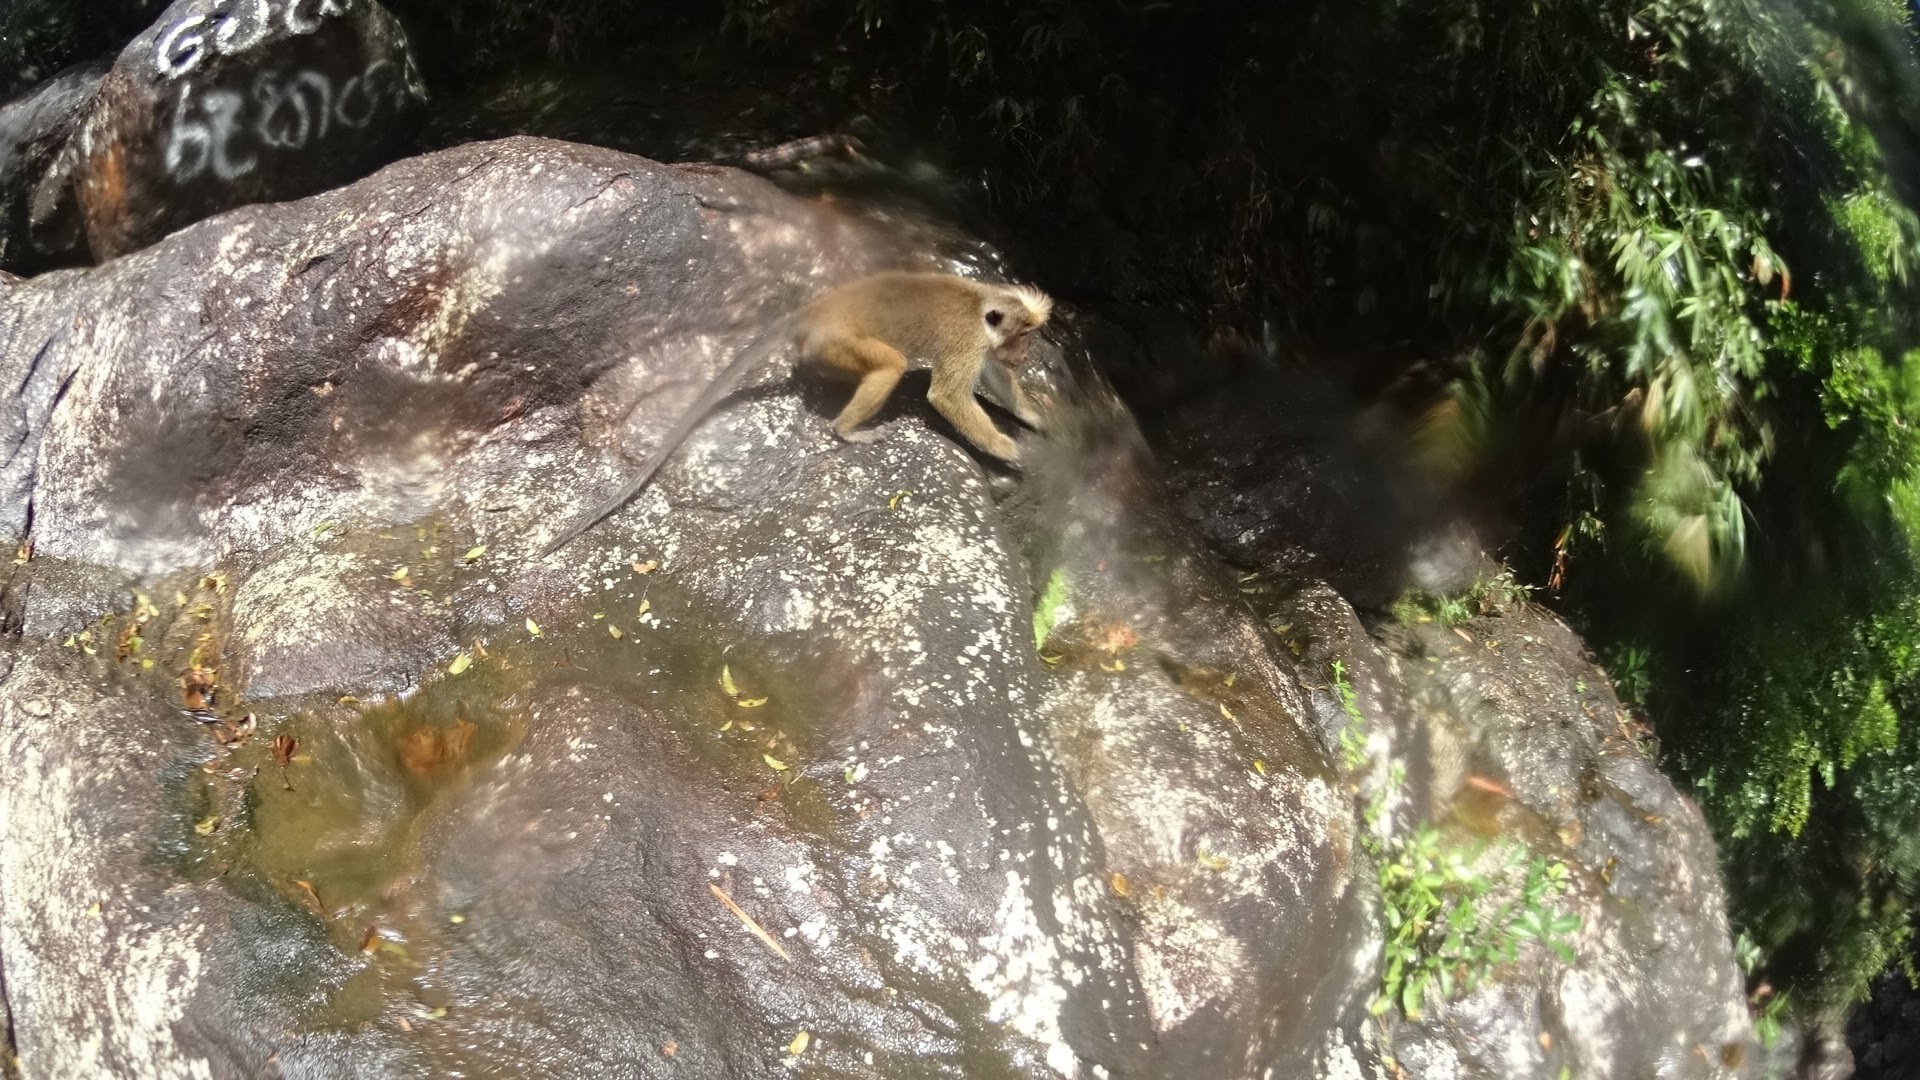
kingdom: Animalia
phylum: Chordata
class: Mammalia
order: Primates
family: Cercopithecidae
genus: Macaca
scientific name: Macaca sinica
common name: Toque macaque
